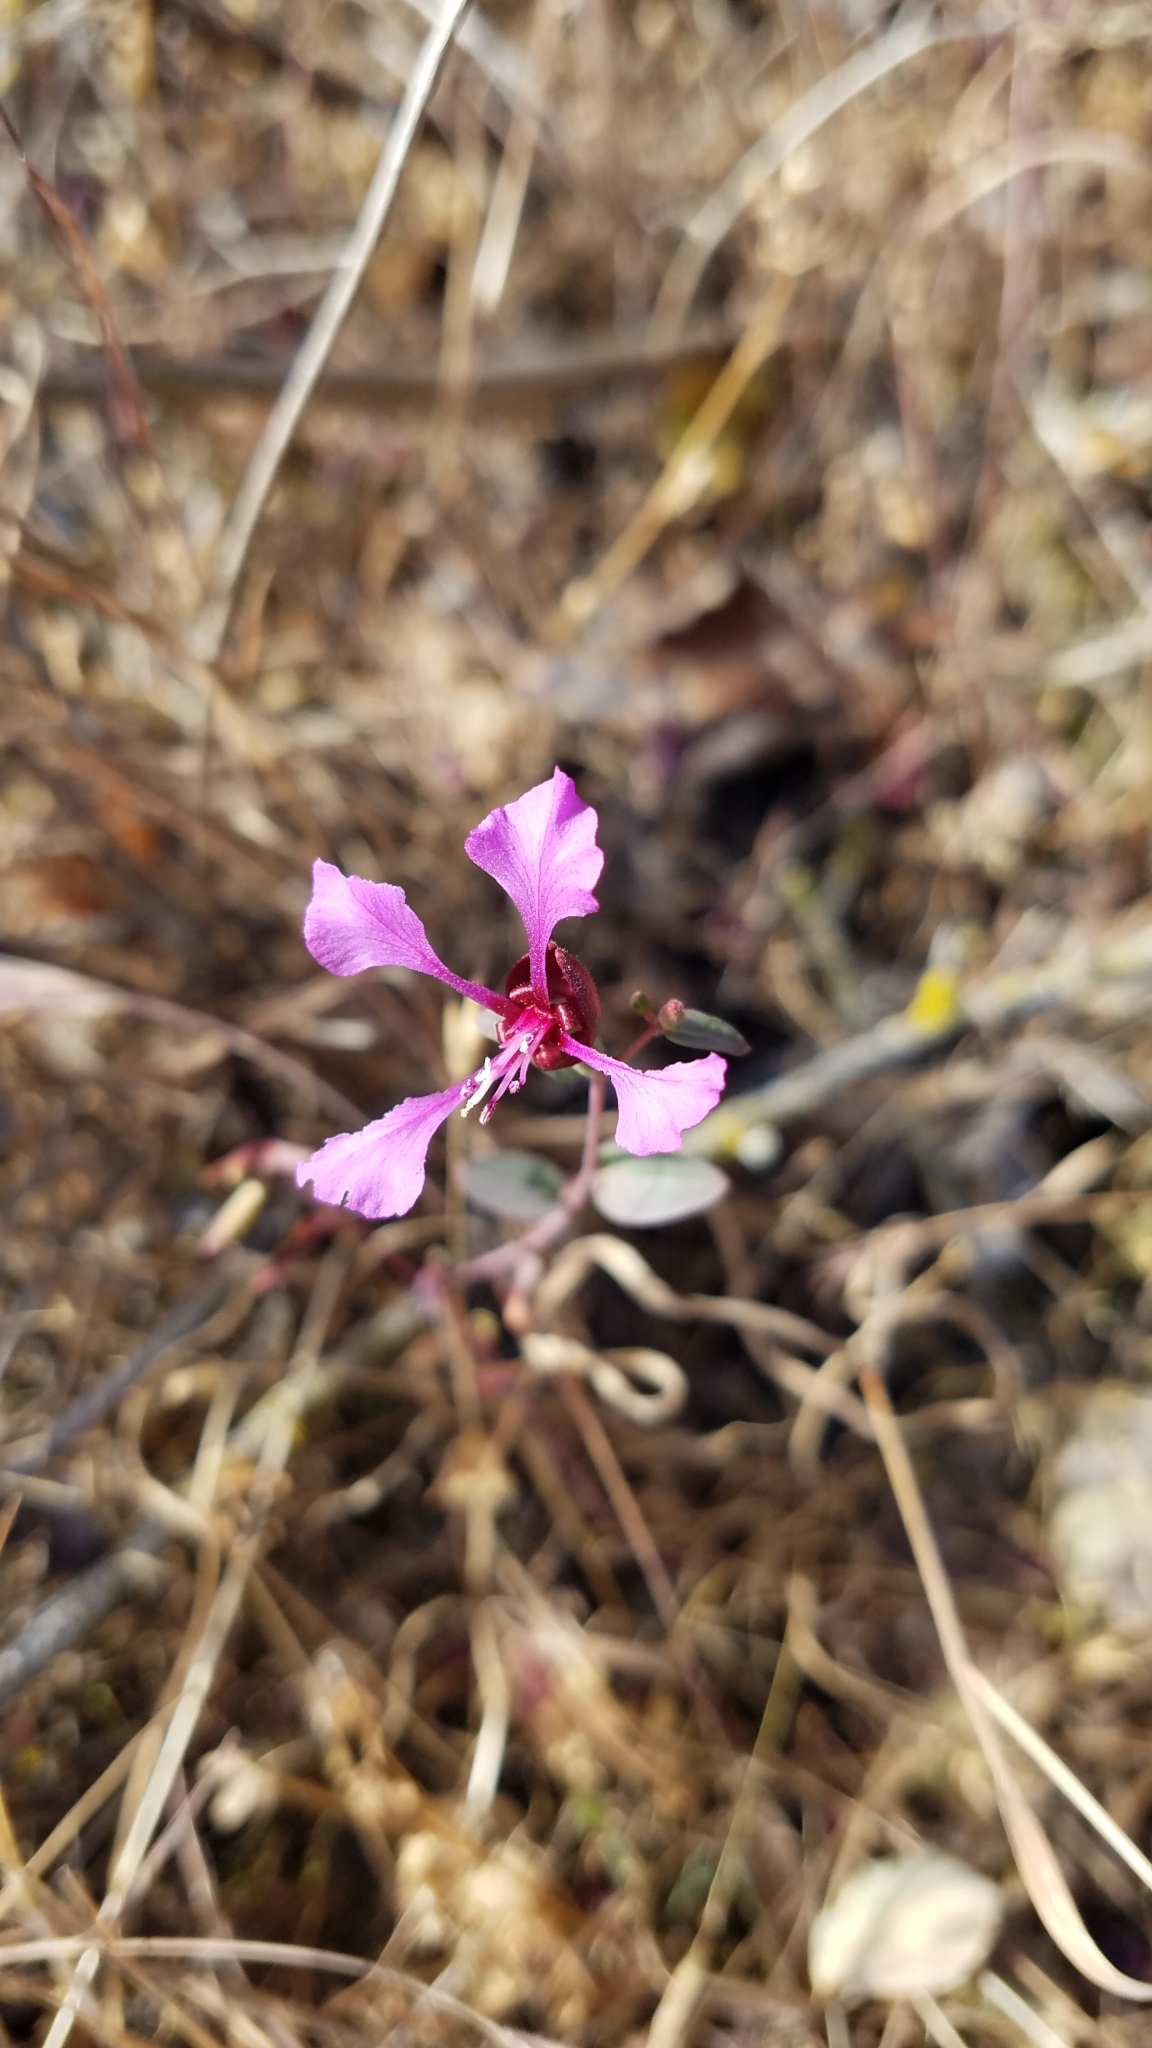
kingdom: Plantae
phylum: Tracheophyta
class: Magnoliopsida
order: Myrtales
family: Onagraceae
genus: Clarkia
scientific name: Clarkia unguiculata
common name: Clarkia
